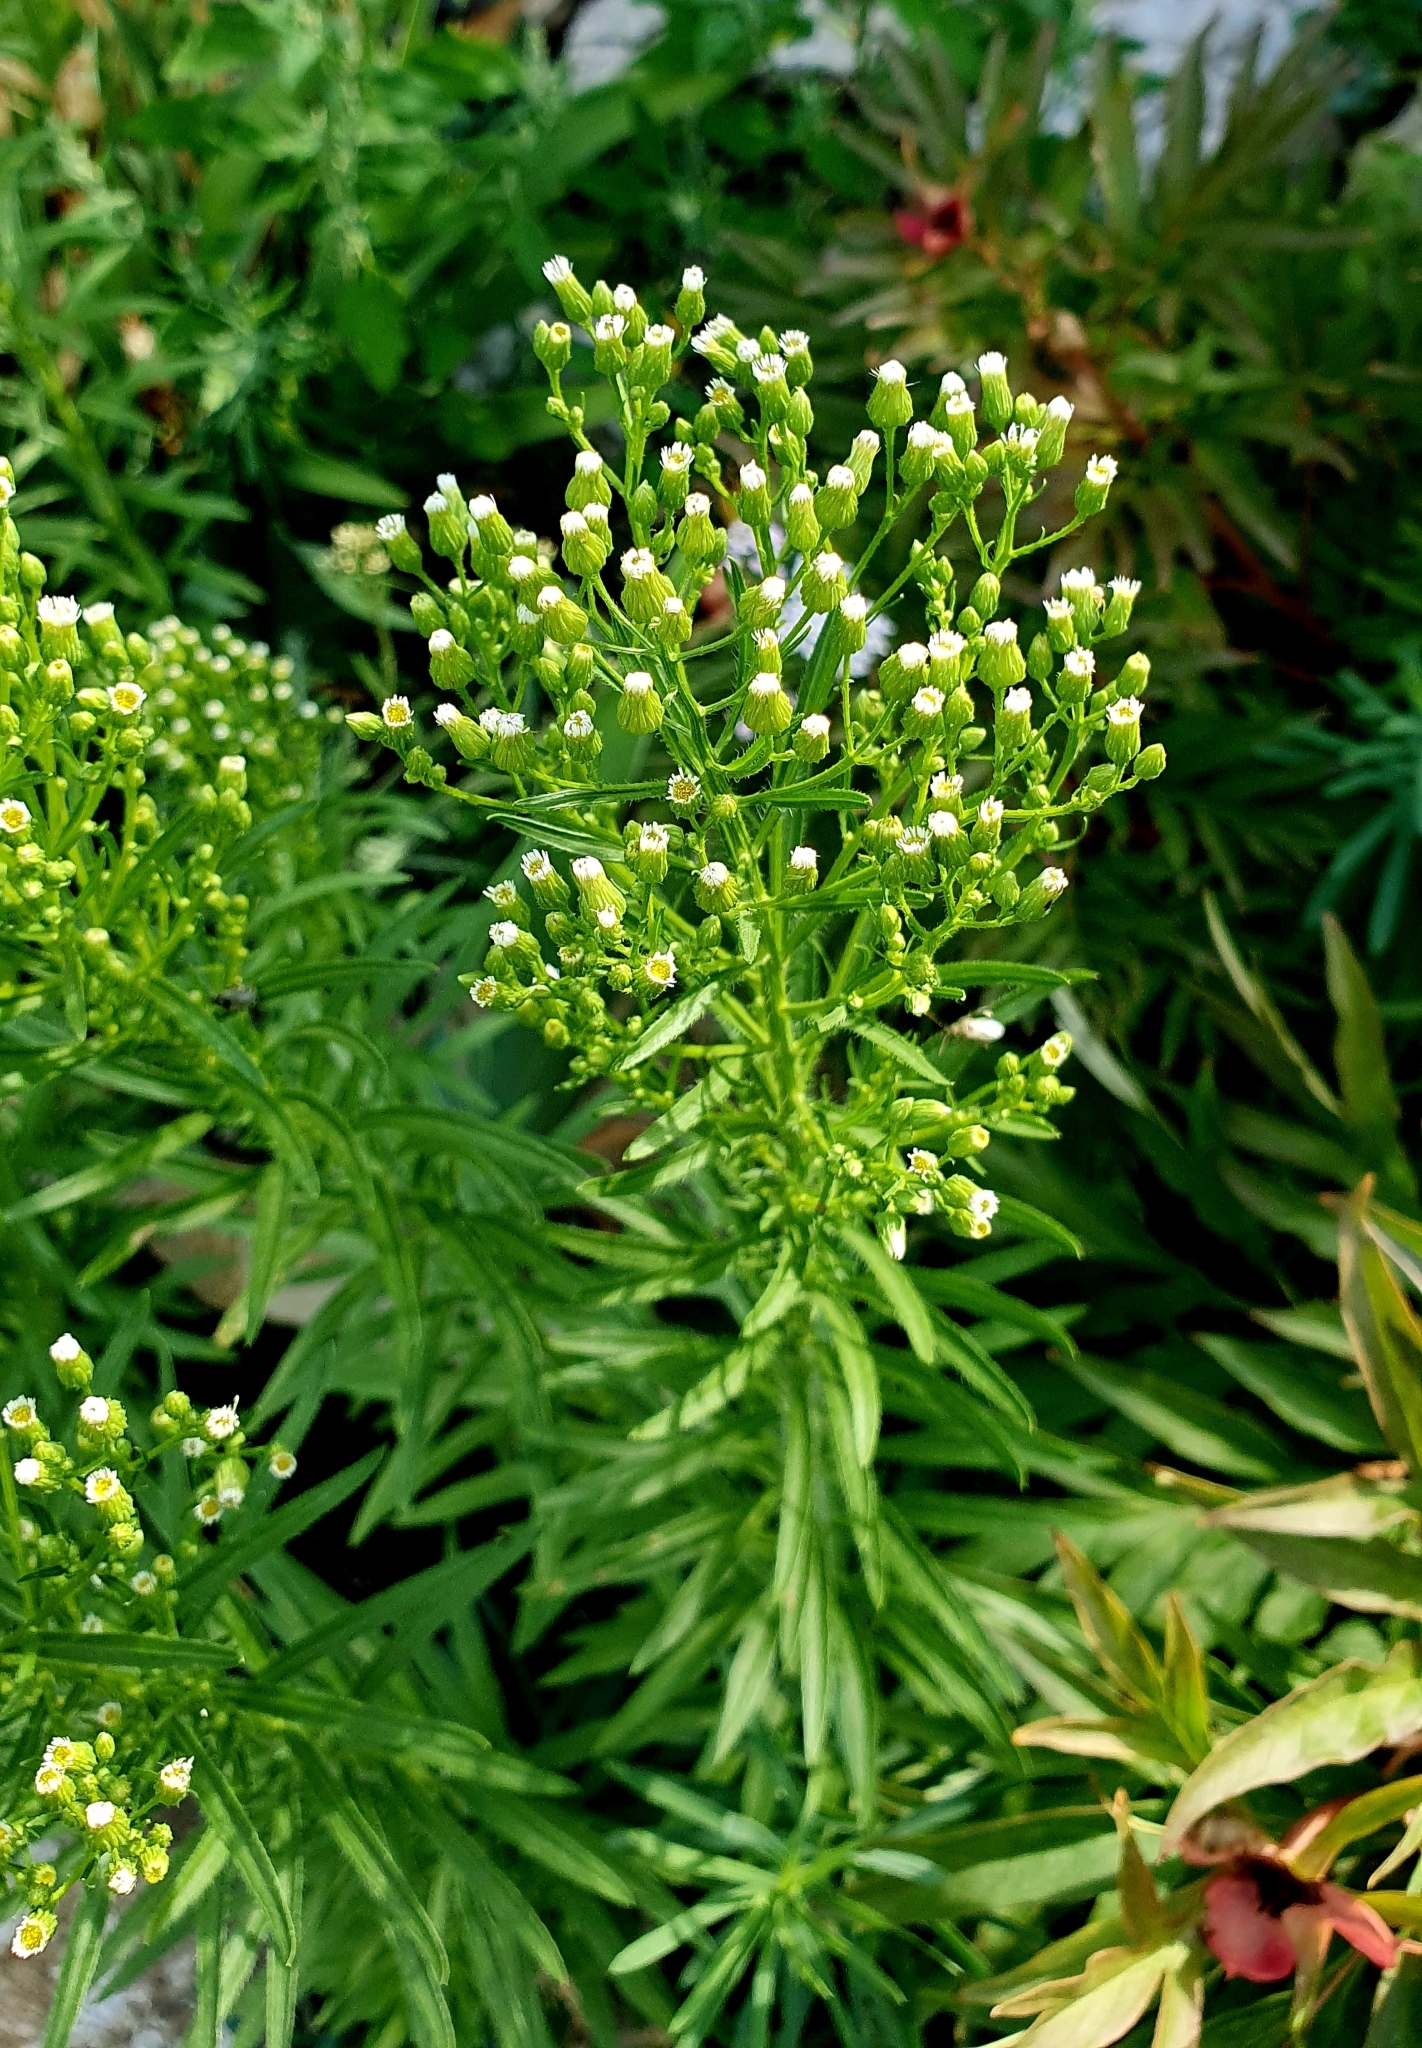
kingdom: Plantae
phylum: Tracheophyta
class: Magnoliopsida
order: Asterales
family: Asteraceae
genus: Erigeron
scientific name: Erigeron canadensis
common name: Canadian fleabane
